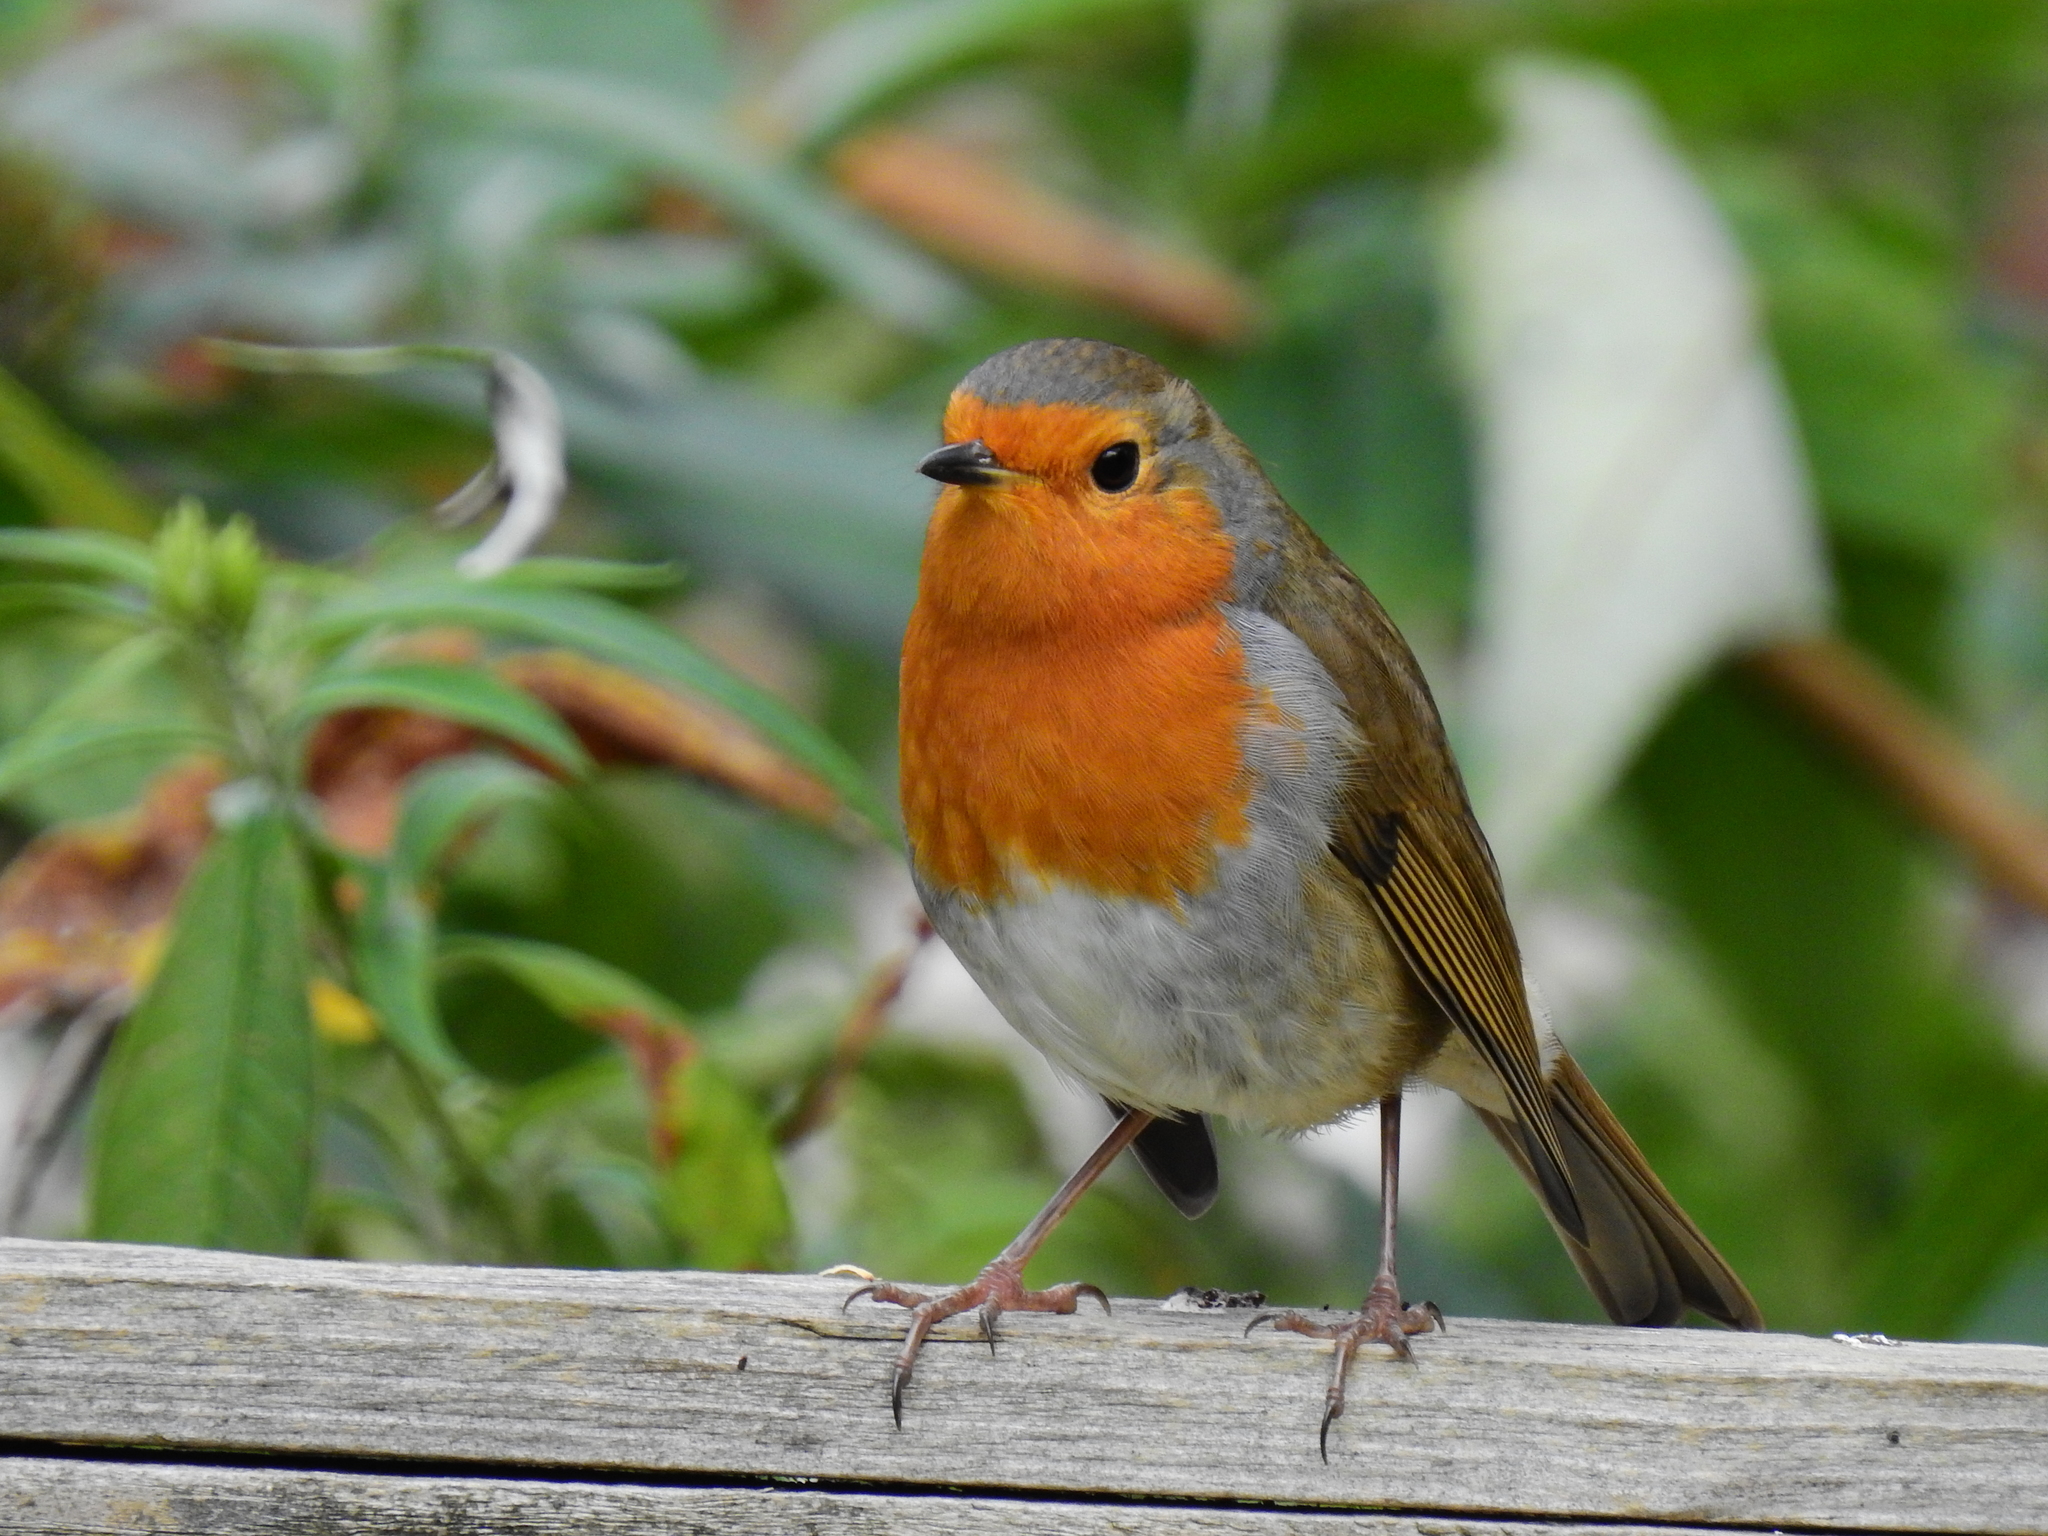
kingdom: Animalia
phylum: Chordata
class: Aves
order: Passeriformes
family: Muscicapidae
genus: Erithacus
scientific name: Erithacus rubecula
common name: European robin
